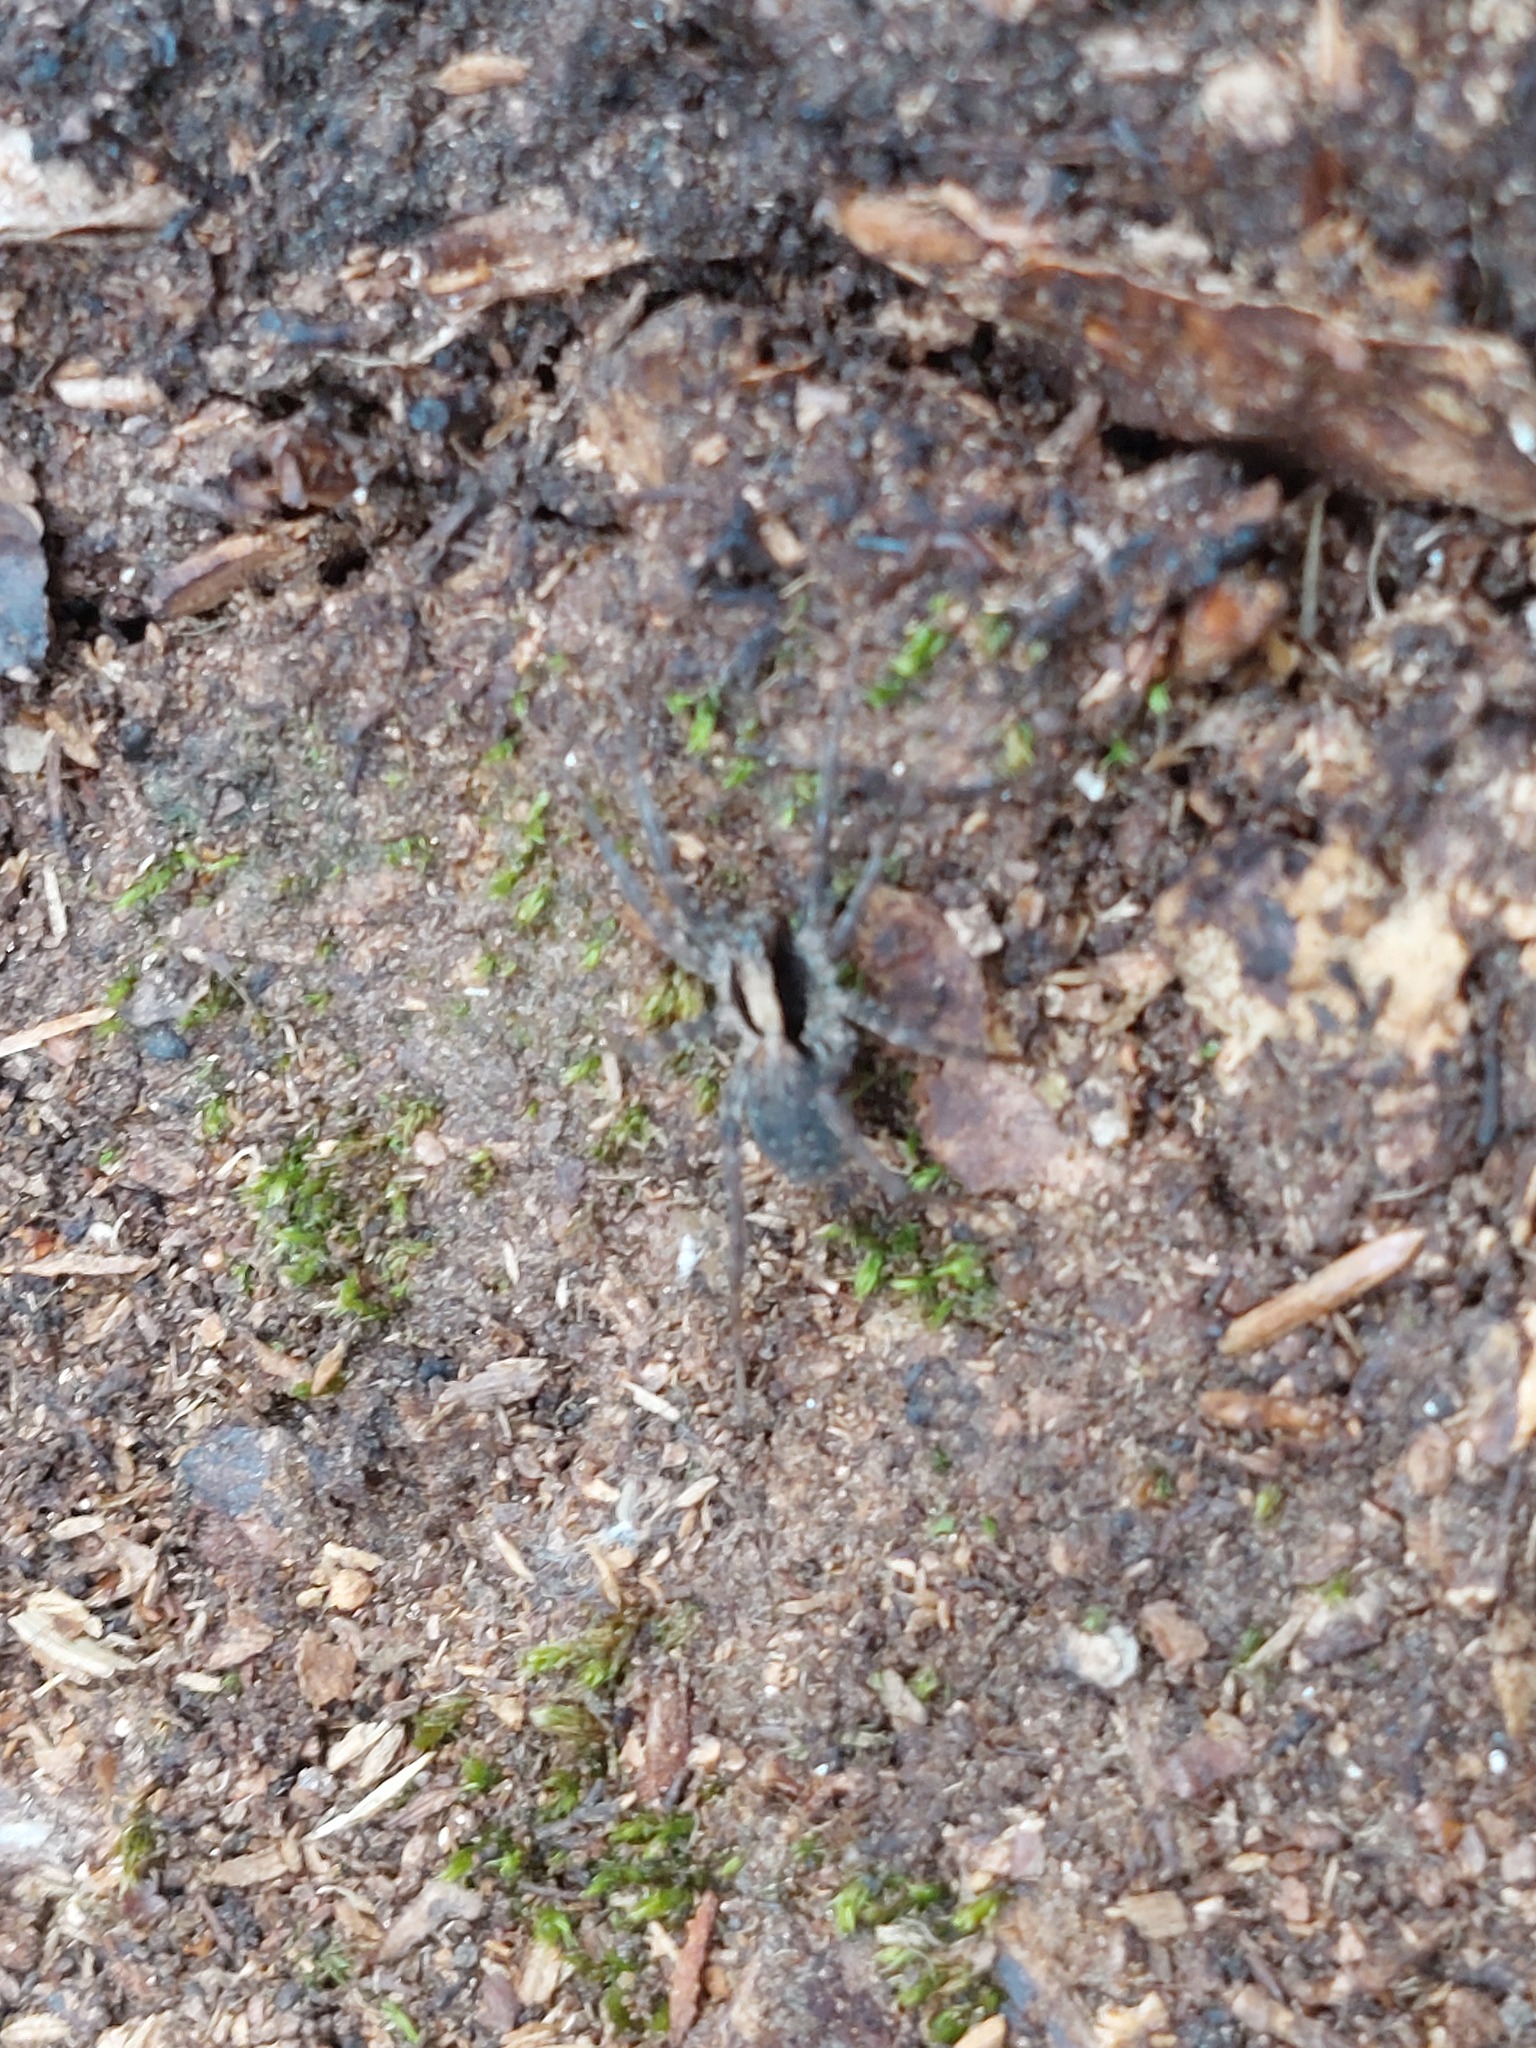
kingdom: Animalia
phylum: Arthropoda
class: Arachnida
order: Araneae
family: Lycosidae
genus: Xerolycosa
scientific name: Xerolycosa nemoralis
